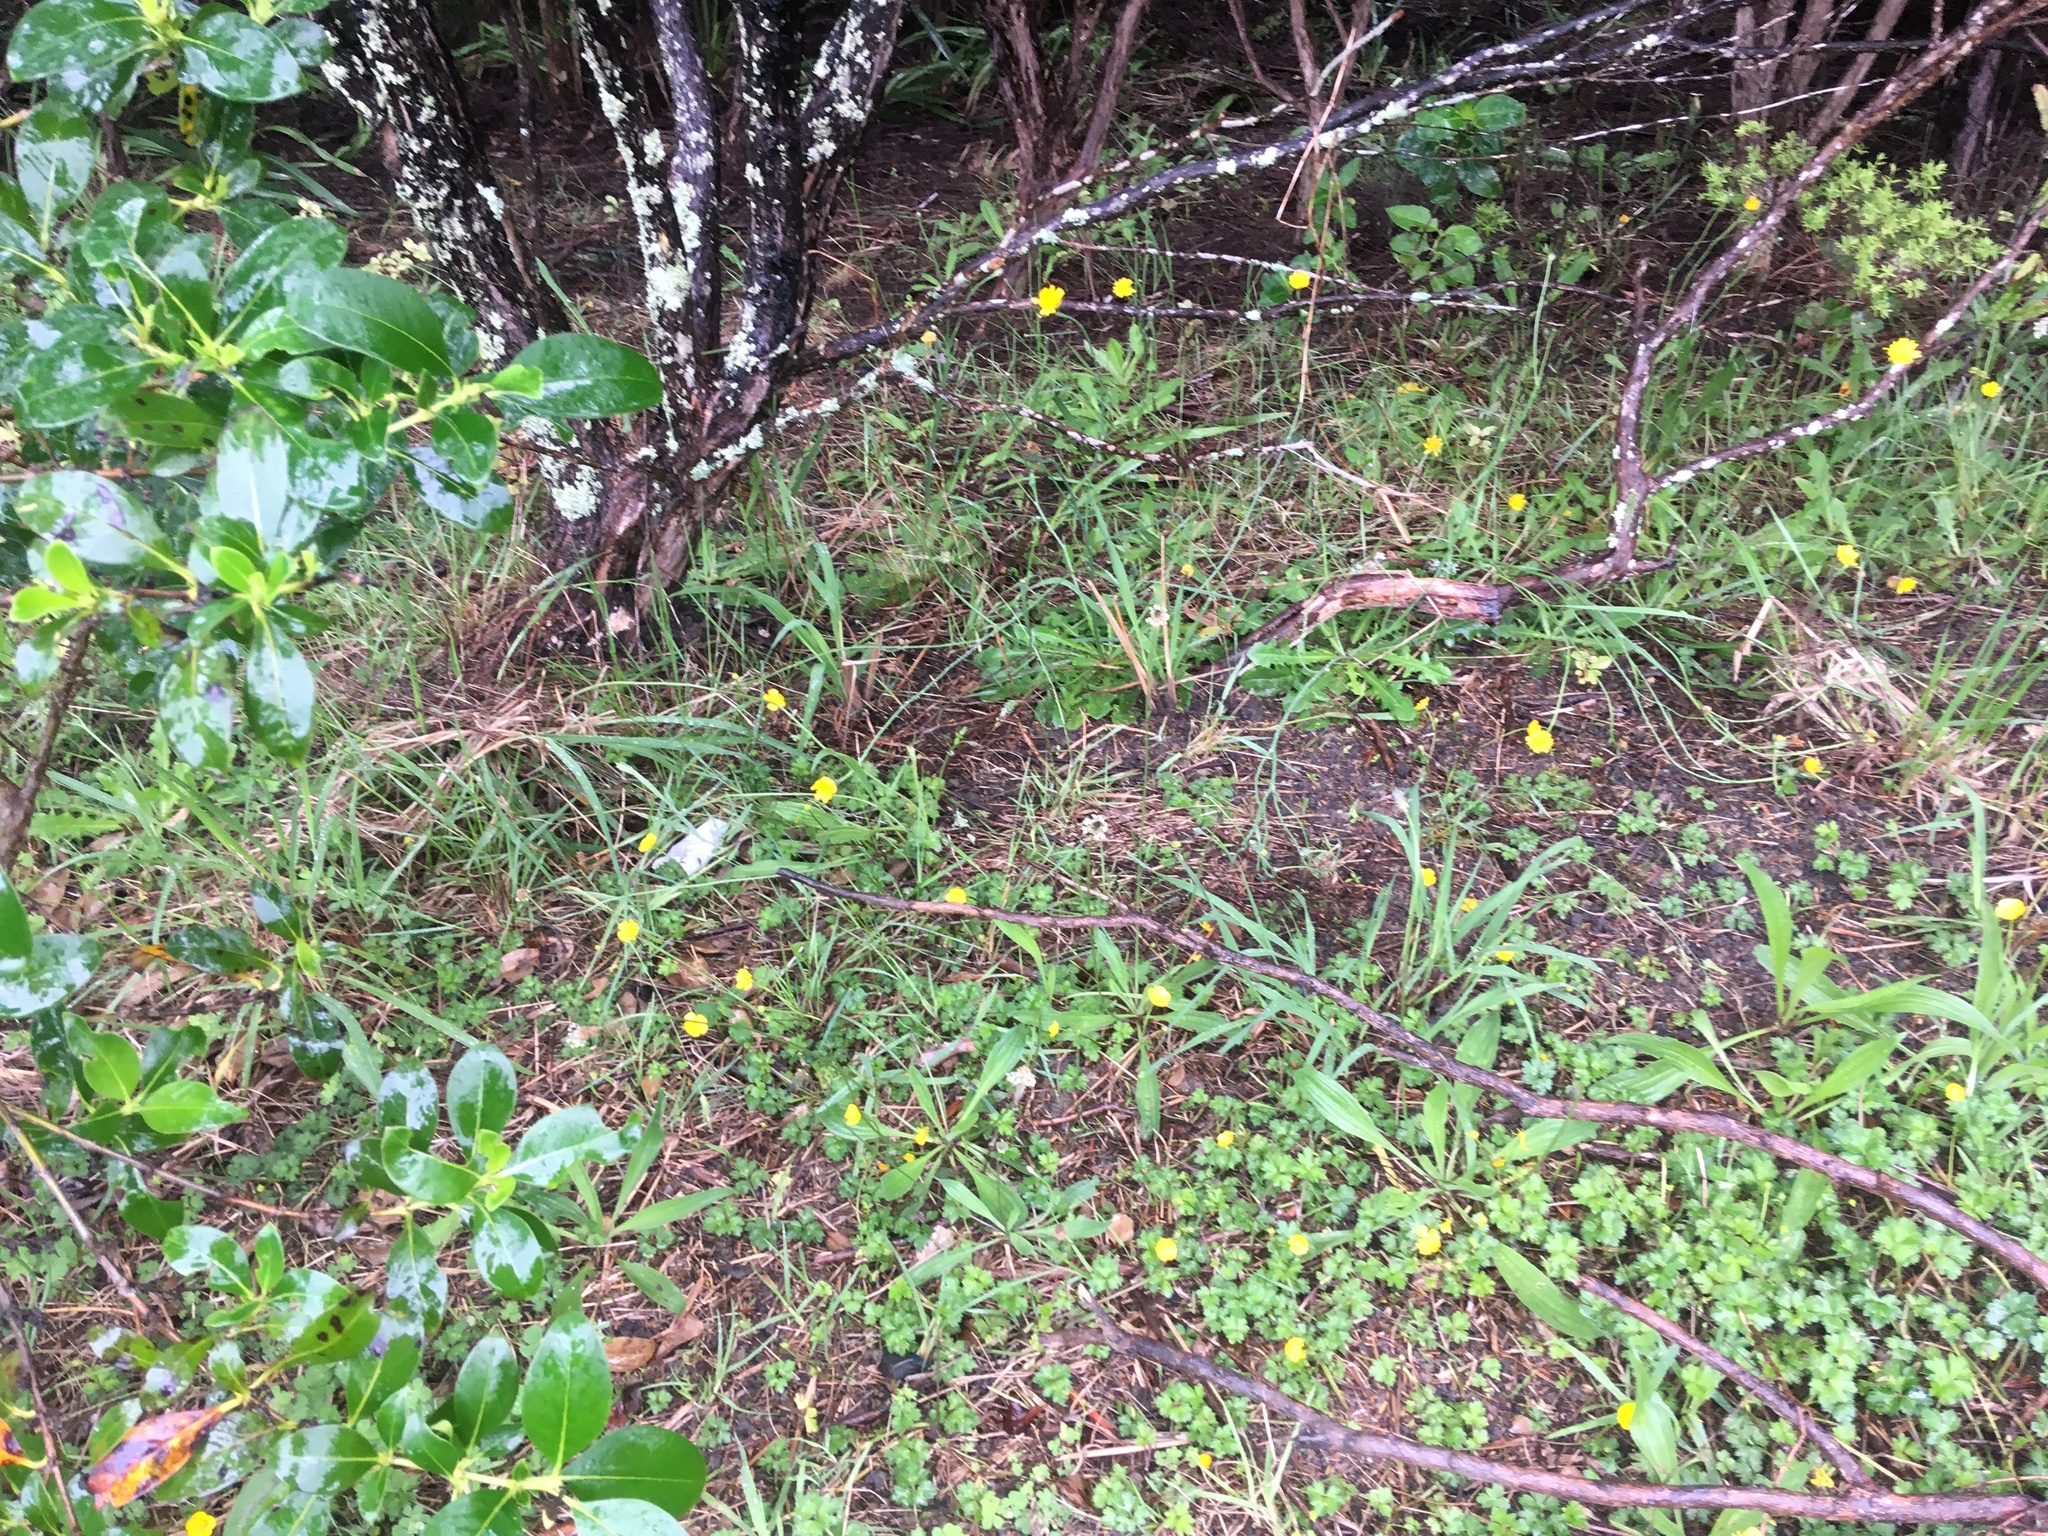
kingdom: Plantae
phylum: Tracheophyta
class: Magnoliopsida
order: Ranunculales
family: Ranunculaceae
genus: Ranunculus
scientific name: Ranunculus repens
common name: Creeping buttercup
